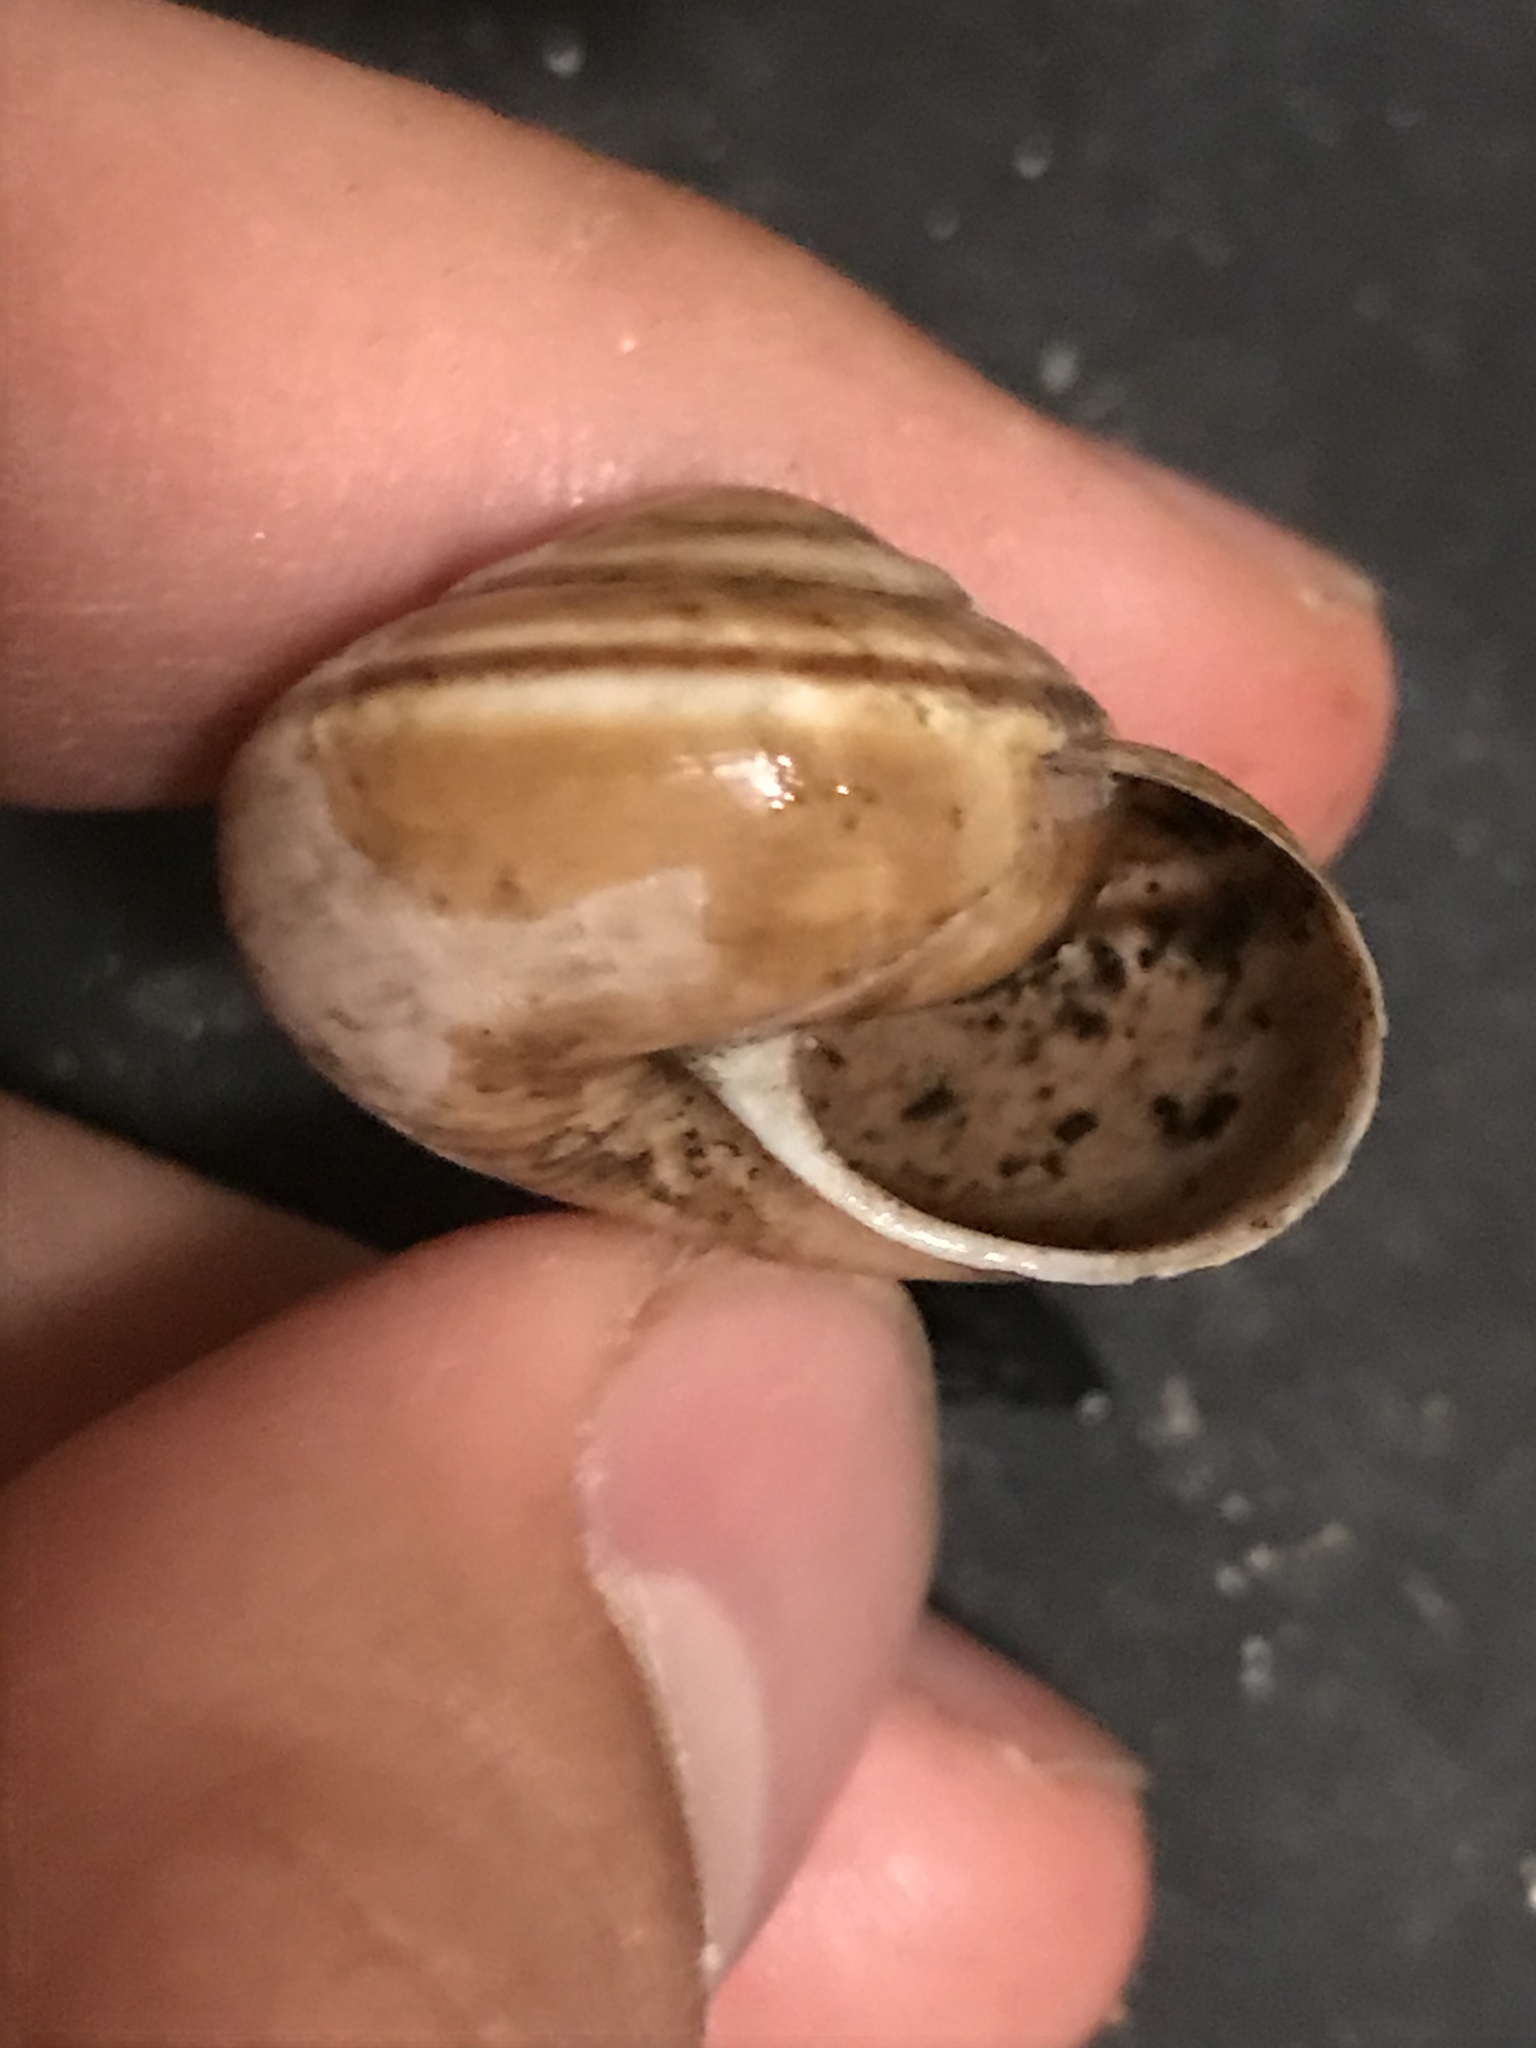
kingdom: Animalia
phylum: Mollusca
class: Gastropoda
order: Stylommatophora
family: Xanthonychidae
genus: Helminthoglypta
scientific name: Helminthoglypta dupetithouarsi
